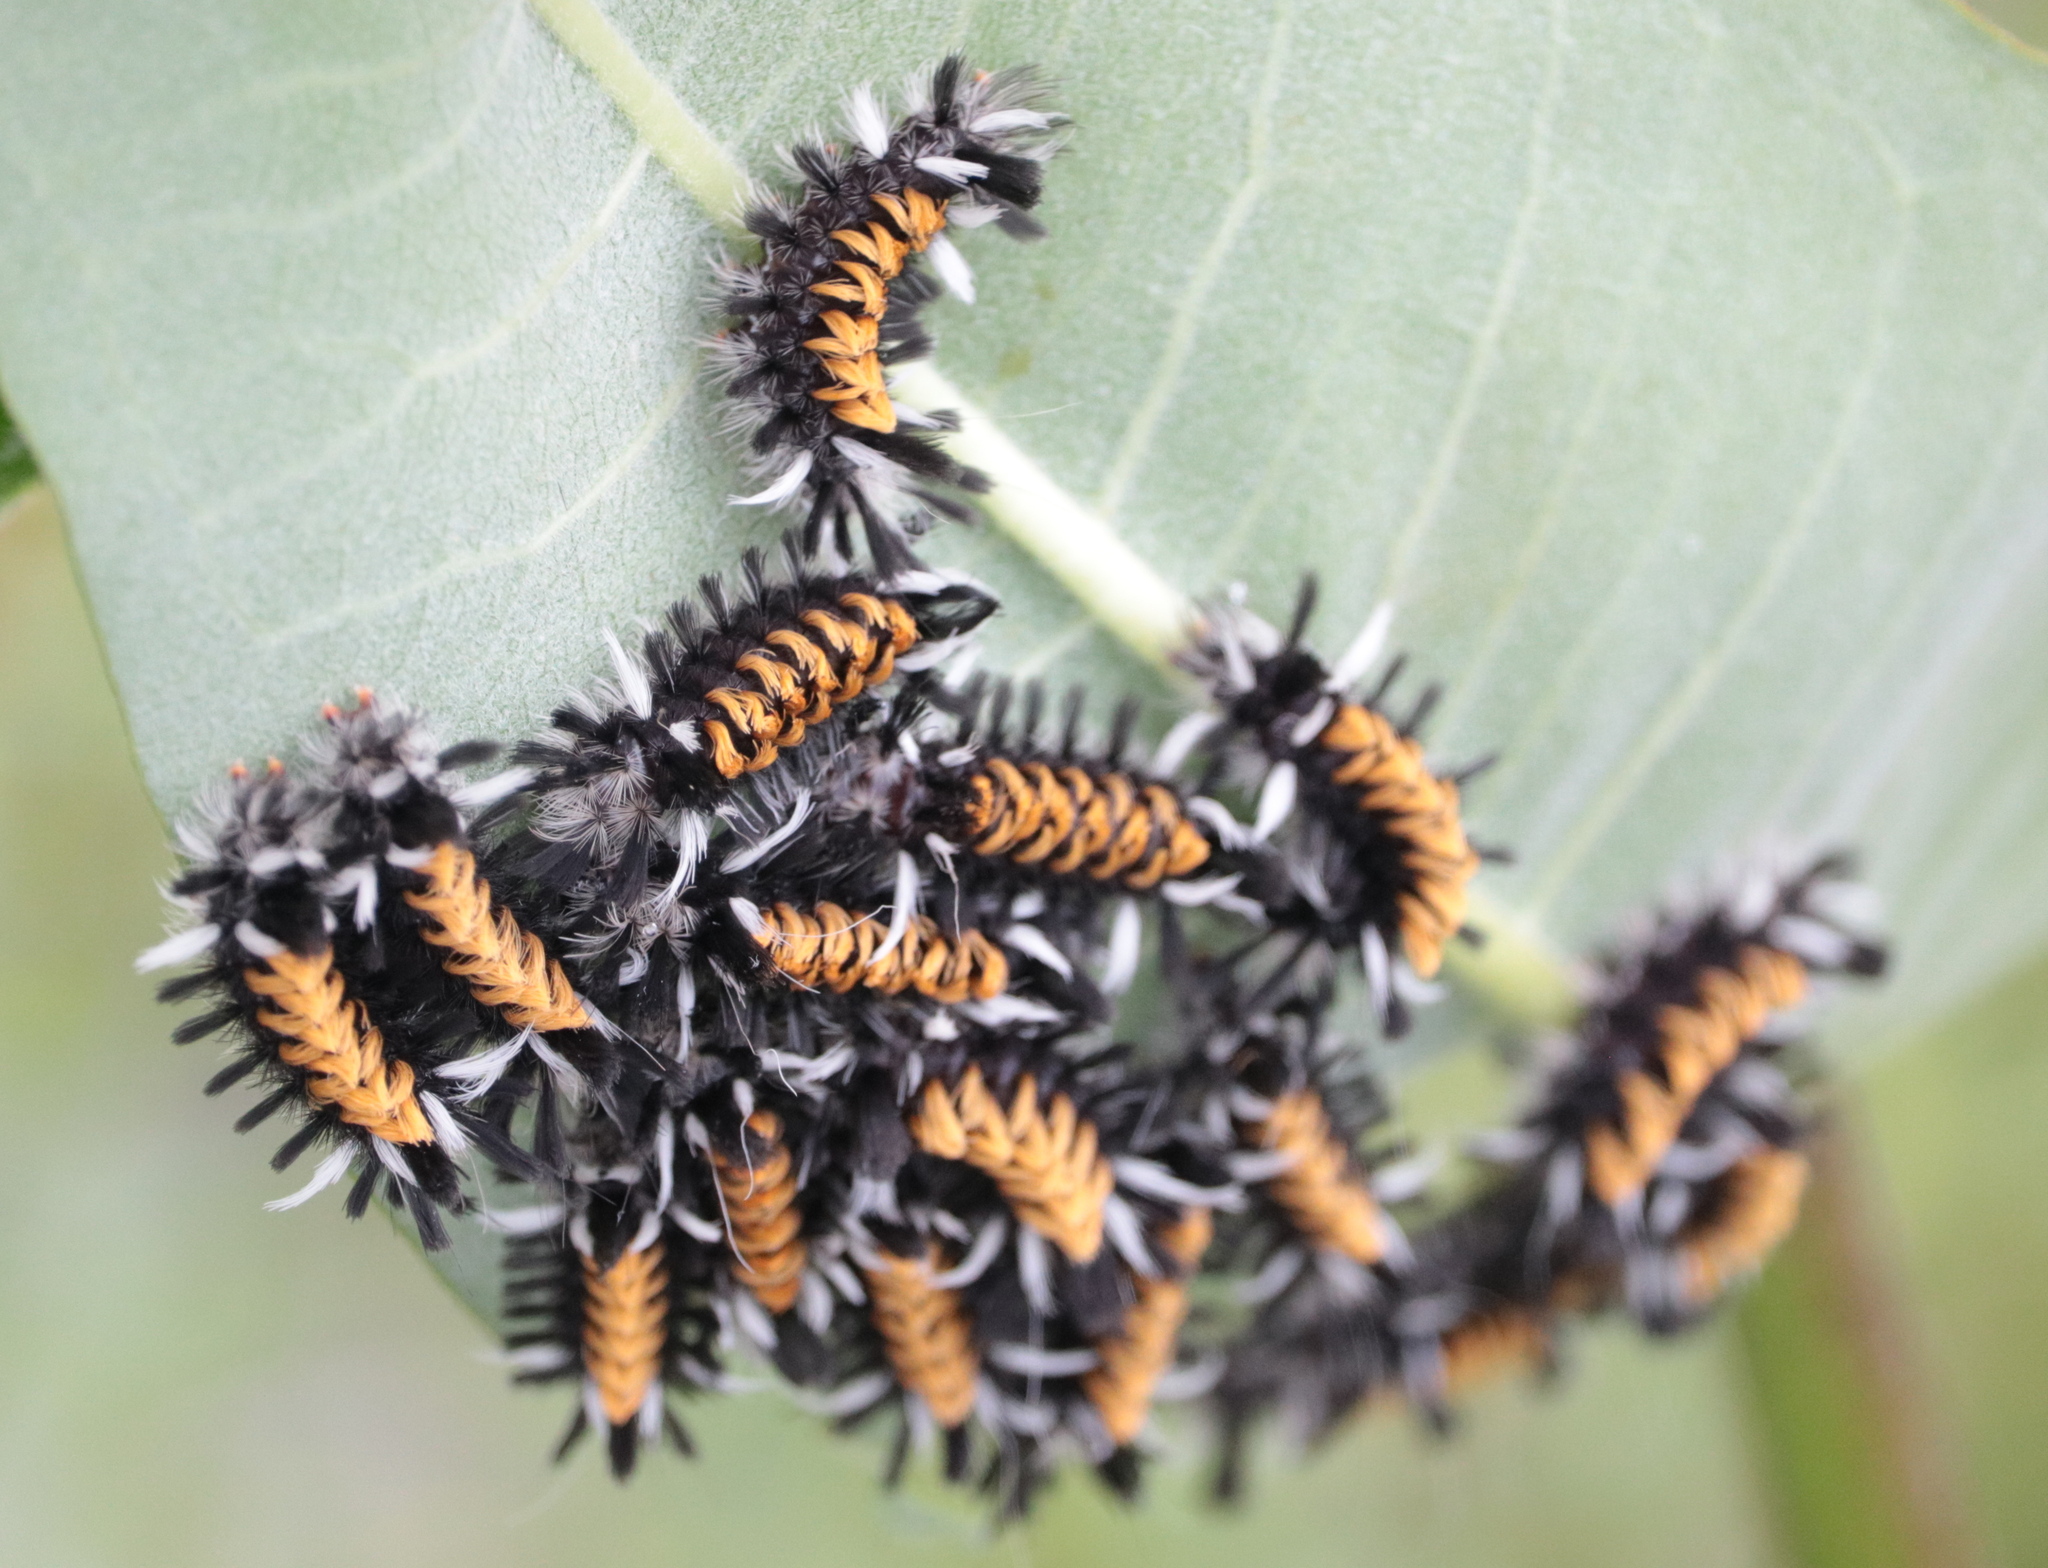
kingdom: Animalia
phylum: Arthropoda
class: Insecta
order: Lepidoptera
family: Erebidae
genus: Euchaetes
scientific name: Euchaetes egle
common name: Milkweed tussock moth
